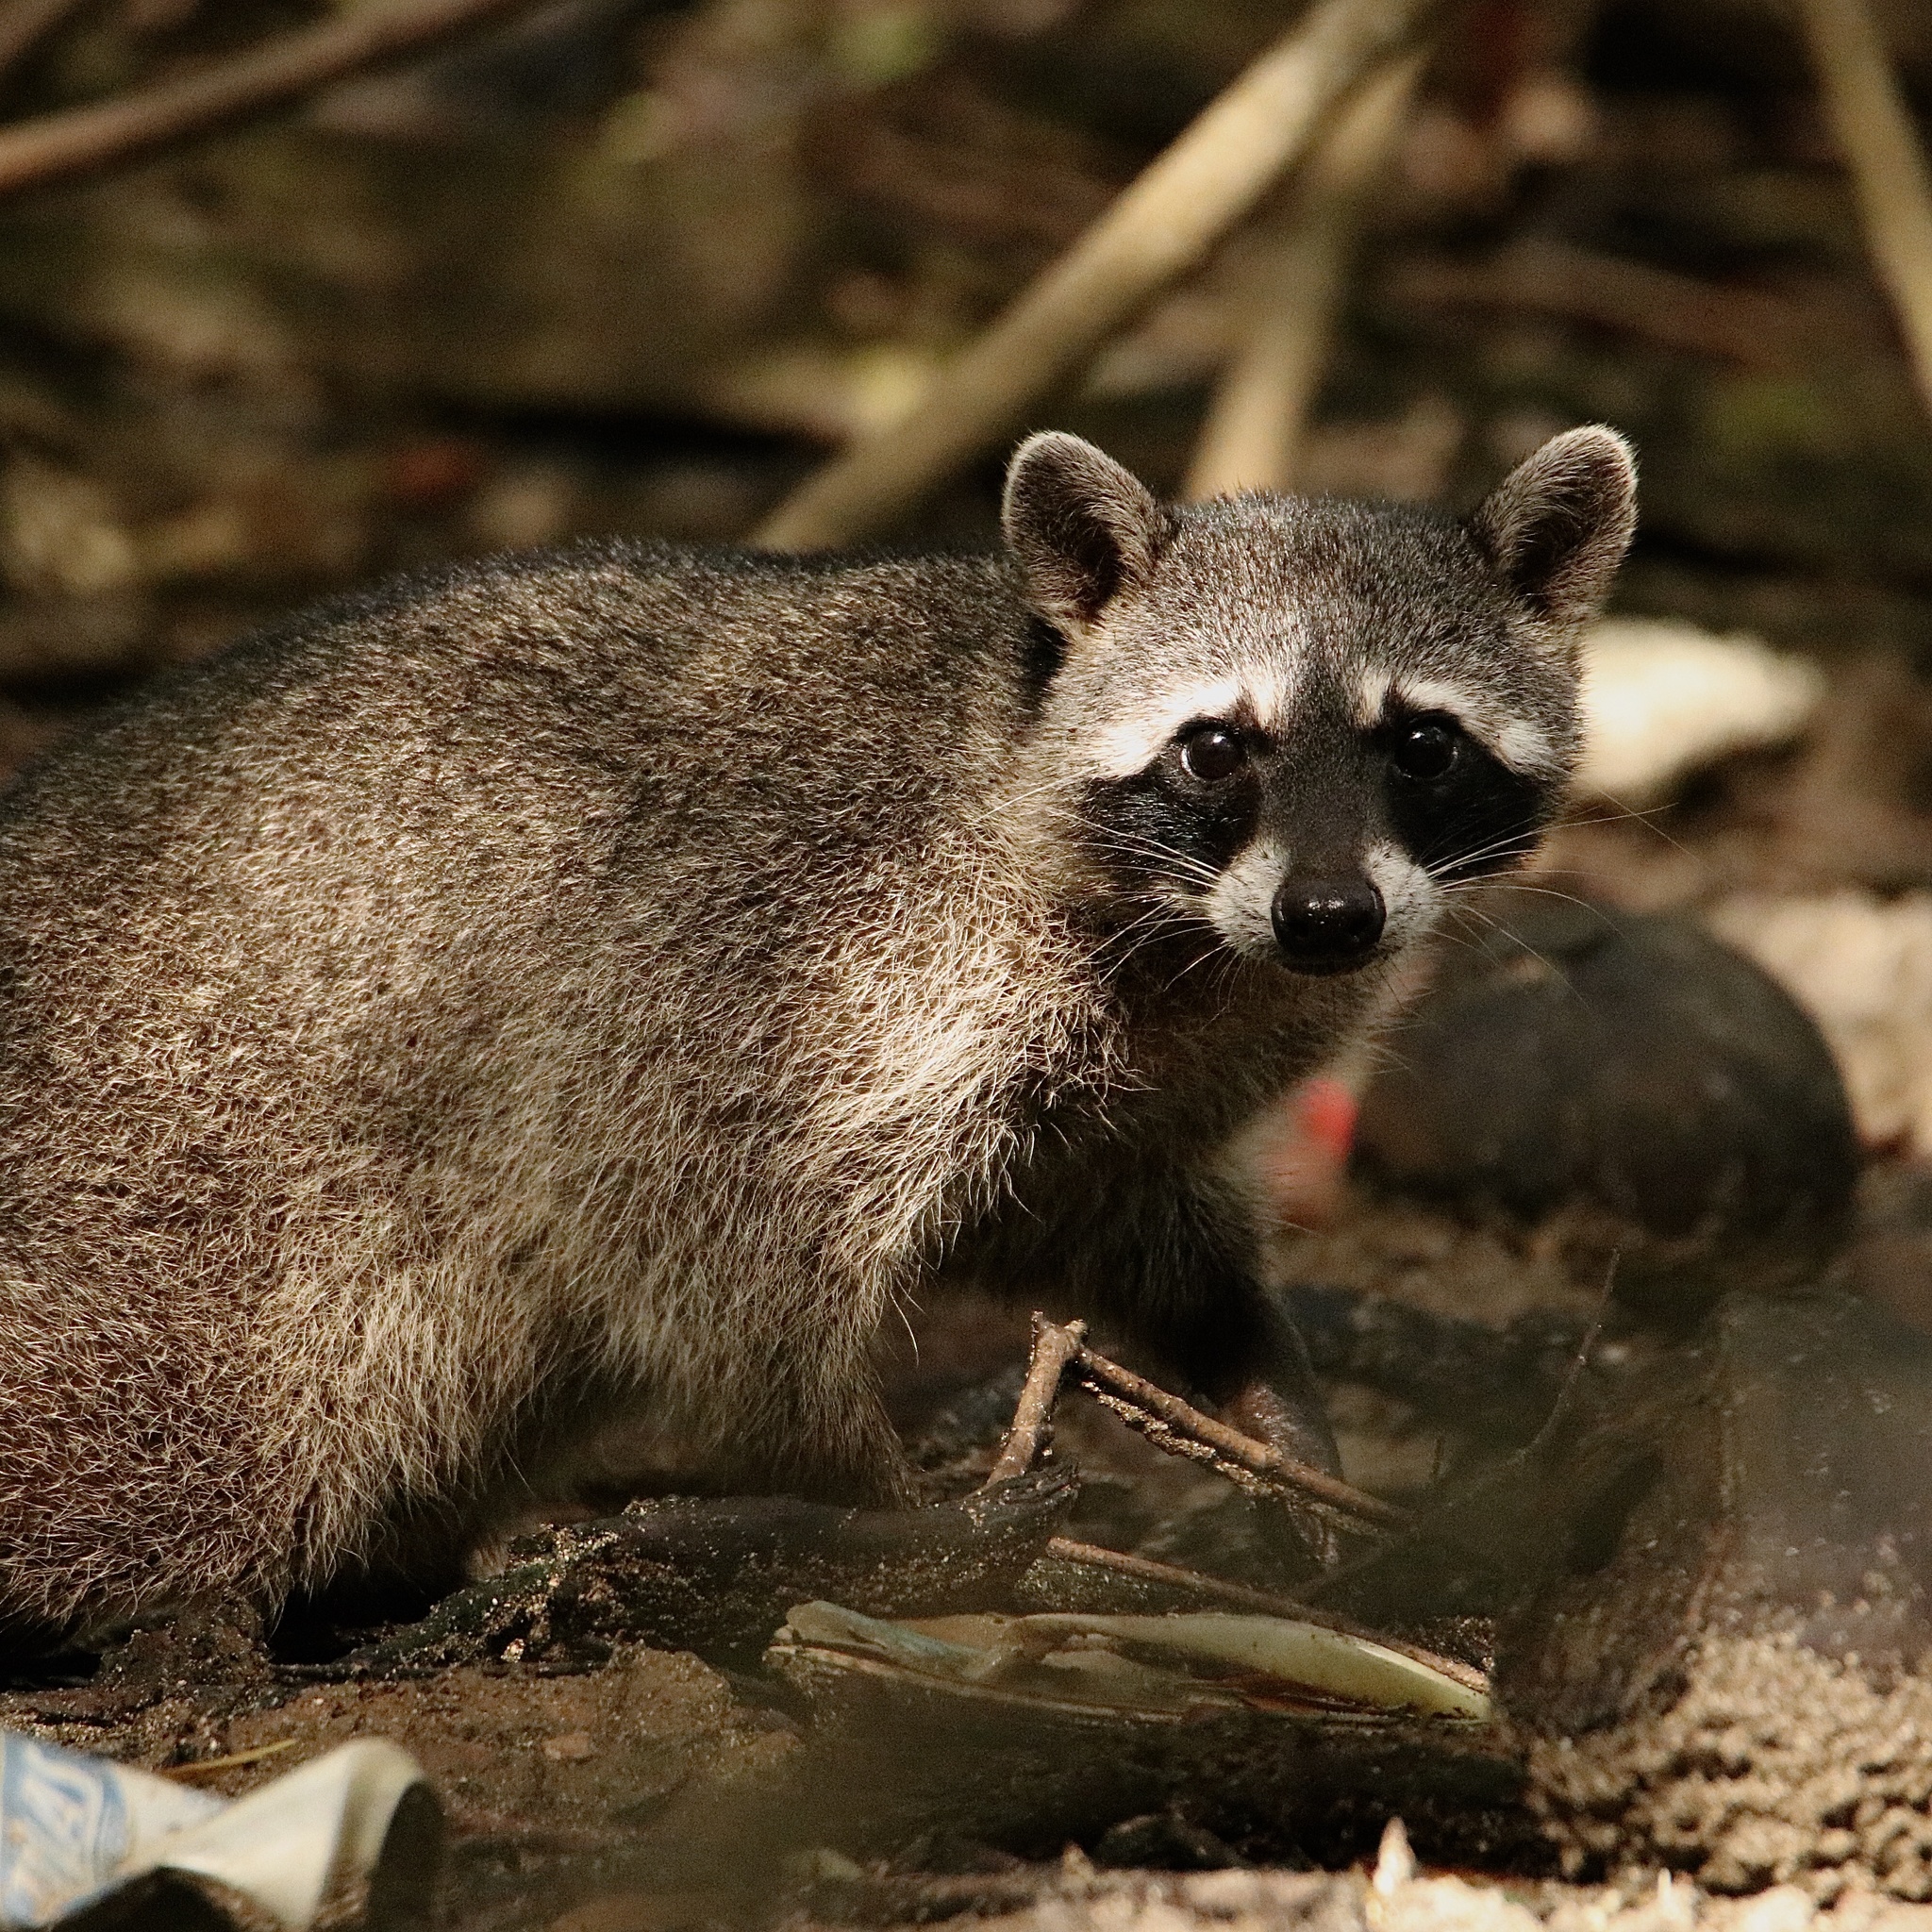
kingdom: Animalia
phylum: Chordata
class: Mammalia
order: Carnivora
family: Procyonidae
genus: Procyon
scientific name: Procyon lotor
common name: Raccoon
